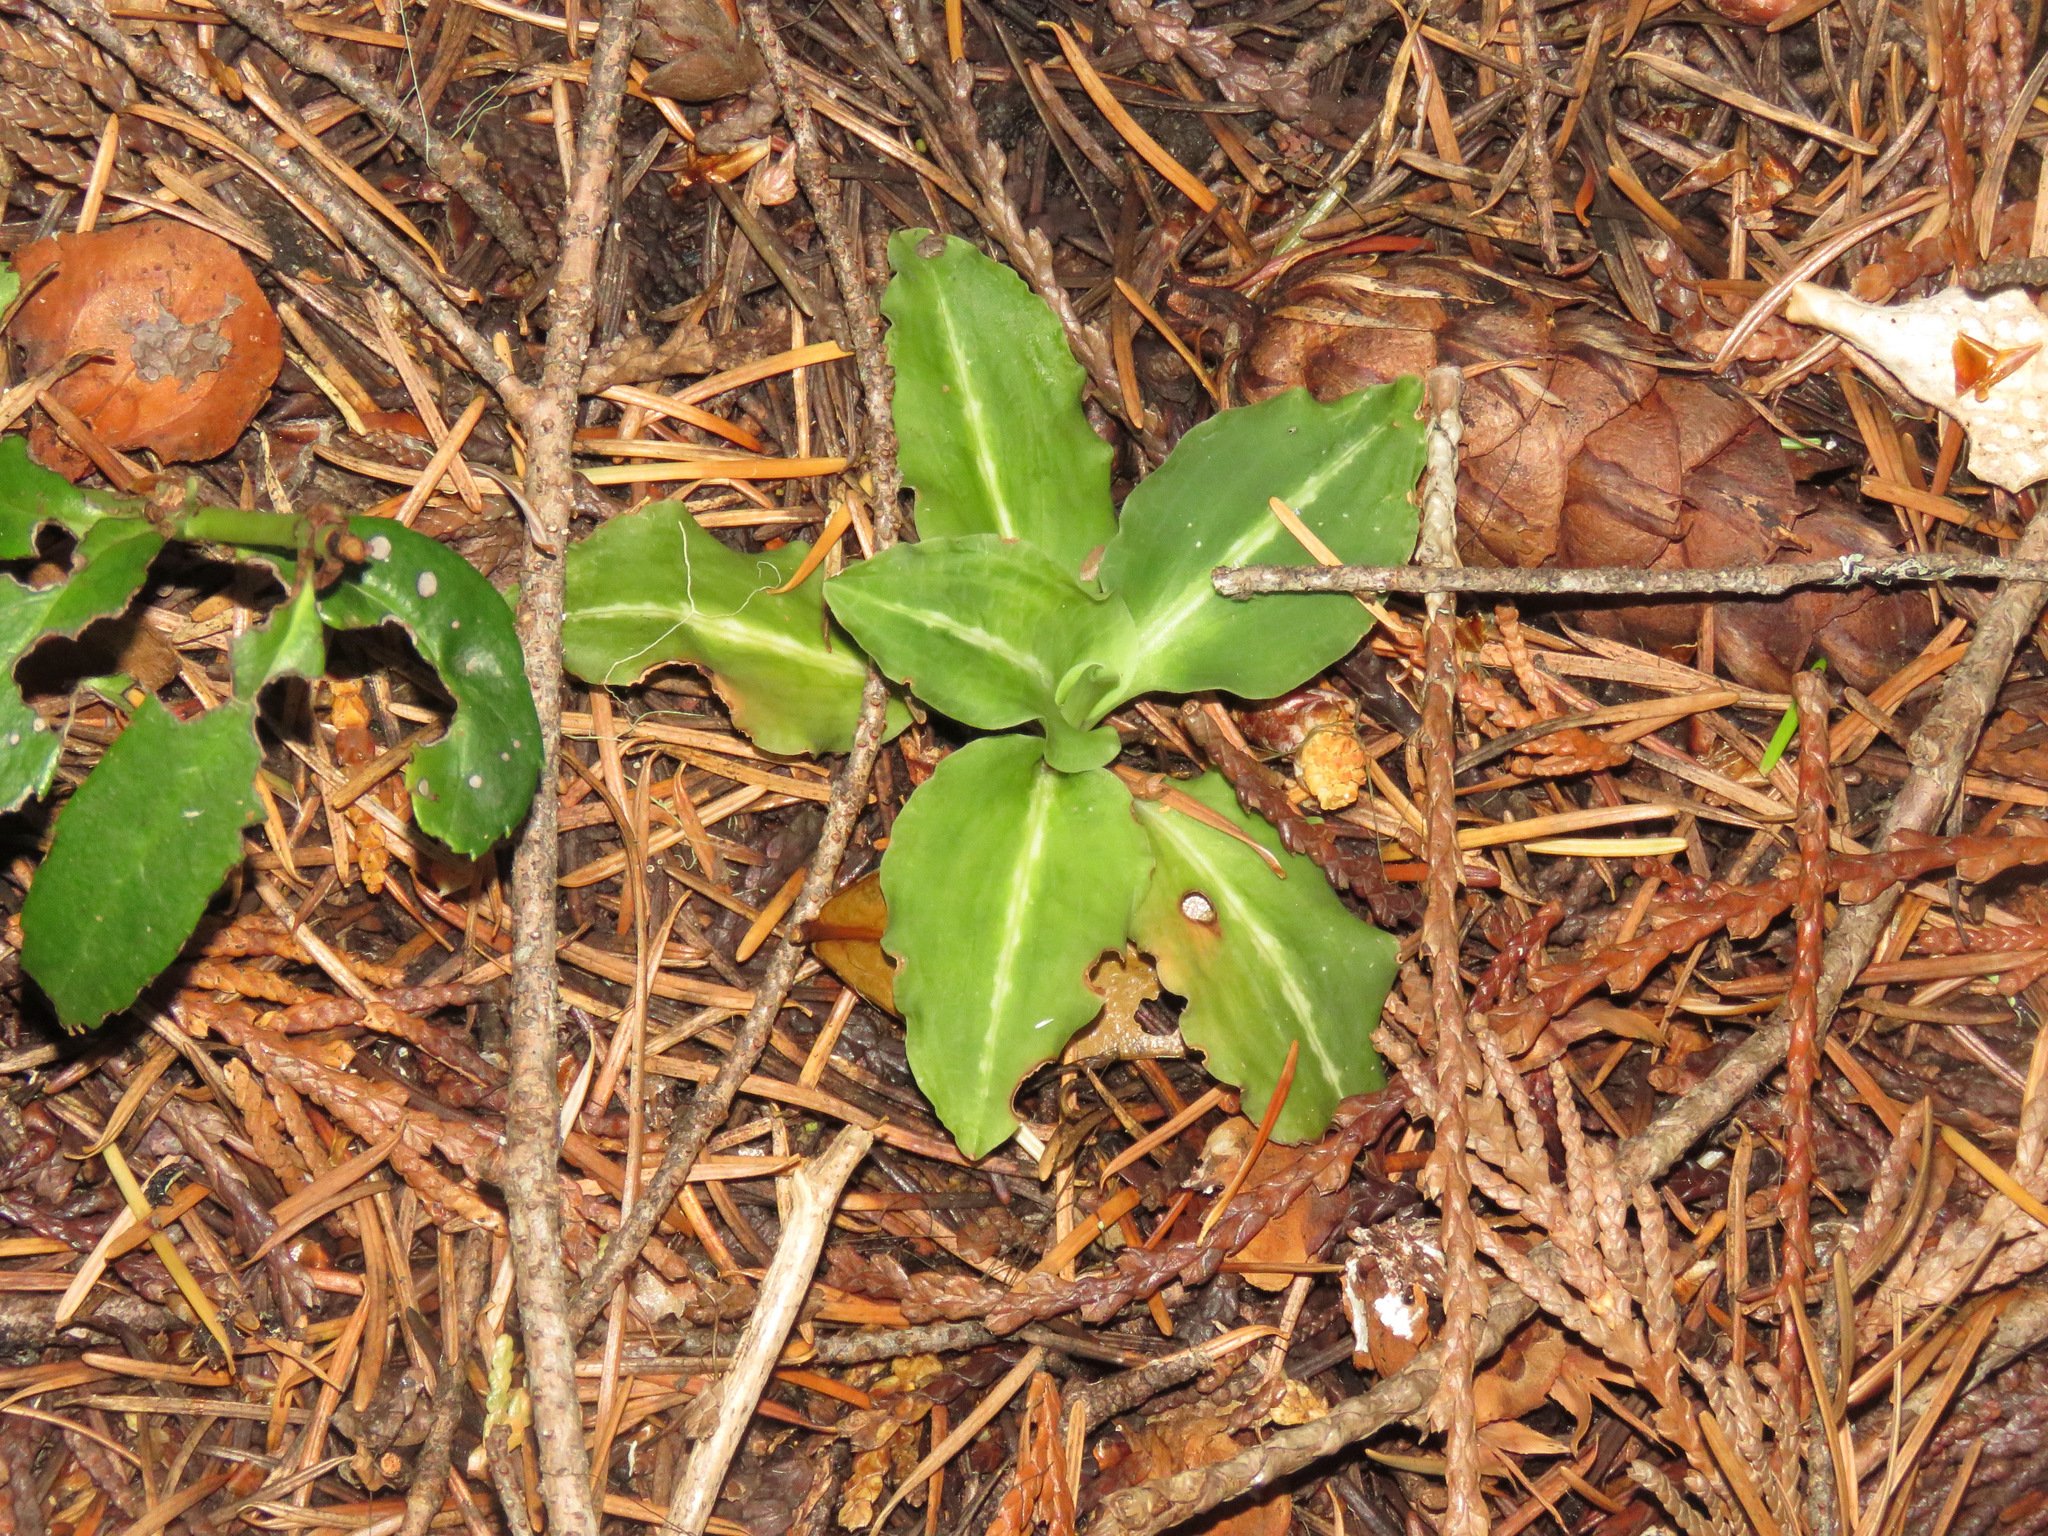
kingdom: Plantae
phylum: Tracheophyta
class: Liliopsida
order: Asparagales
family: Orchidaceae
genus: Goodyera
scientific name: Goodyera oblongifolia
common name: Giant rattlesnake-plantain
